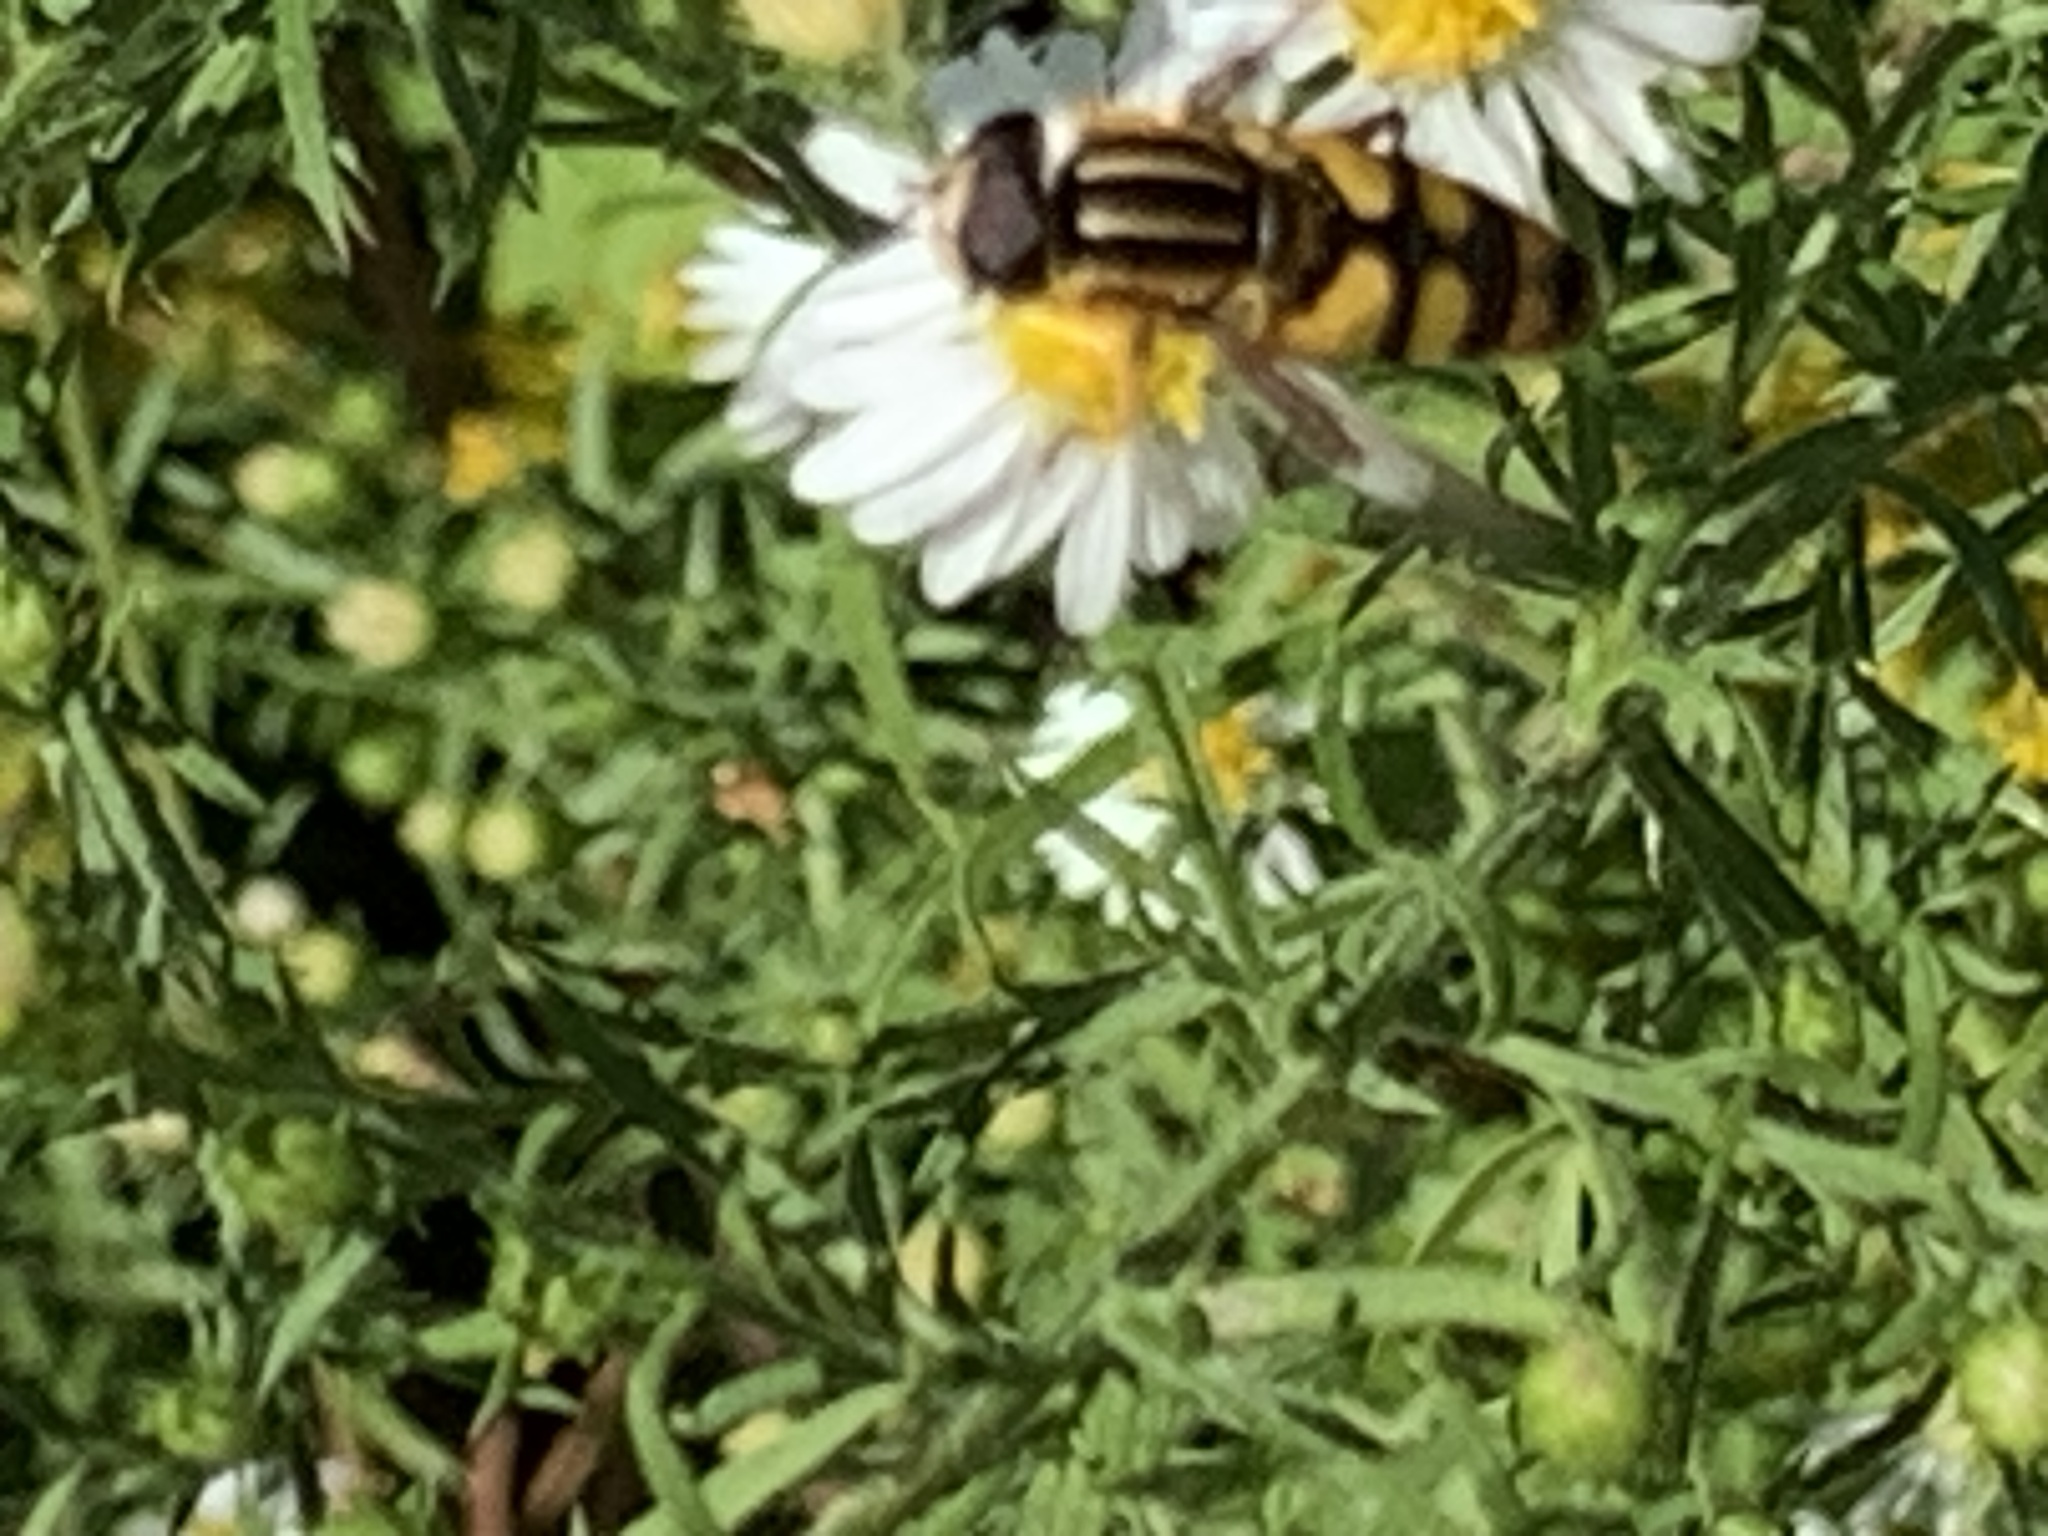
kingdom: Animalia
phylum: Arthropoda
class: Insecta
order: Diptera
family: Syrphidae
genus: Helophilus
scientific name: Helophilus fasciatus
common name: Narrow-headed marsh fly
